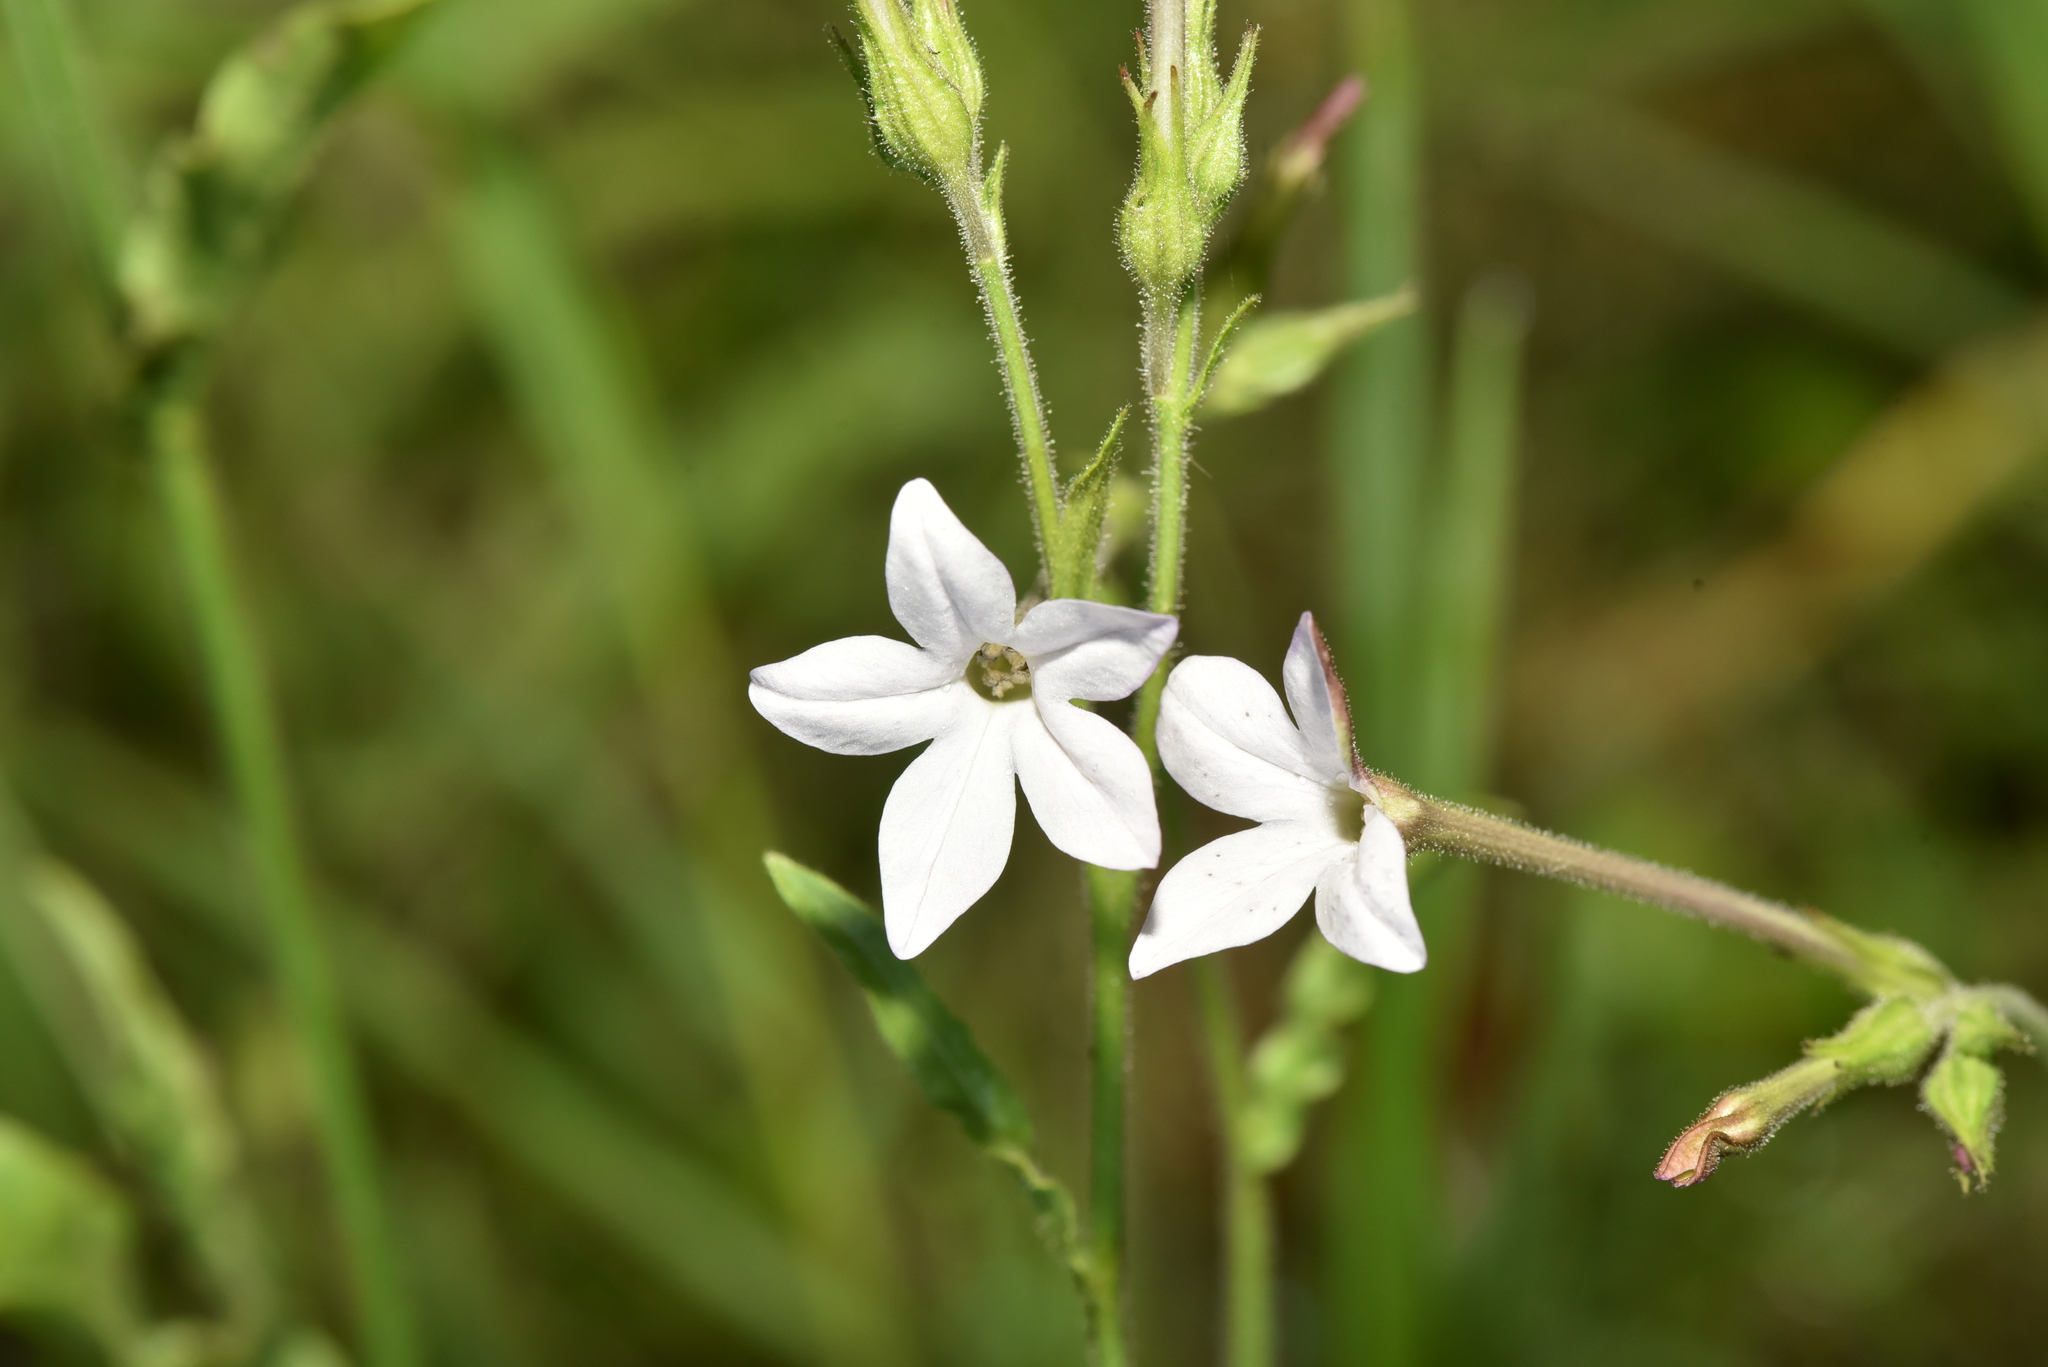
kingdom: Plantae
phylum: Tracheophyta
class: Magnoliopsida
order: Solanales
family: Solanaceae
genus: Nicotiana
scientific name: Nicotiana plumbaginifolia
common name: Tex-mex tobacco
